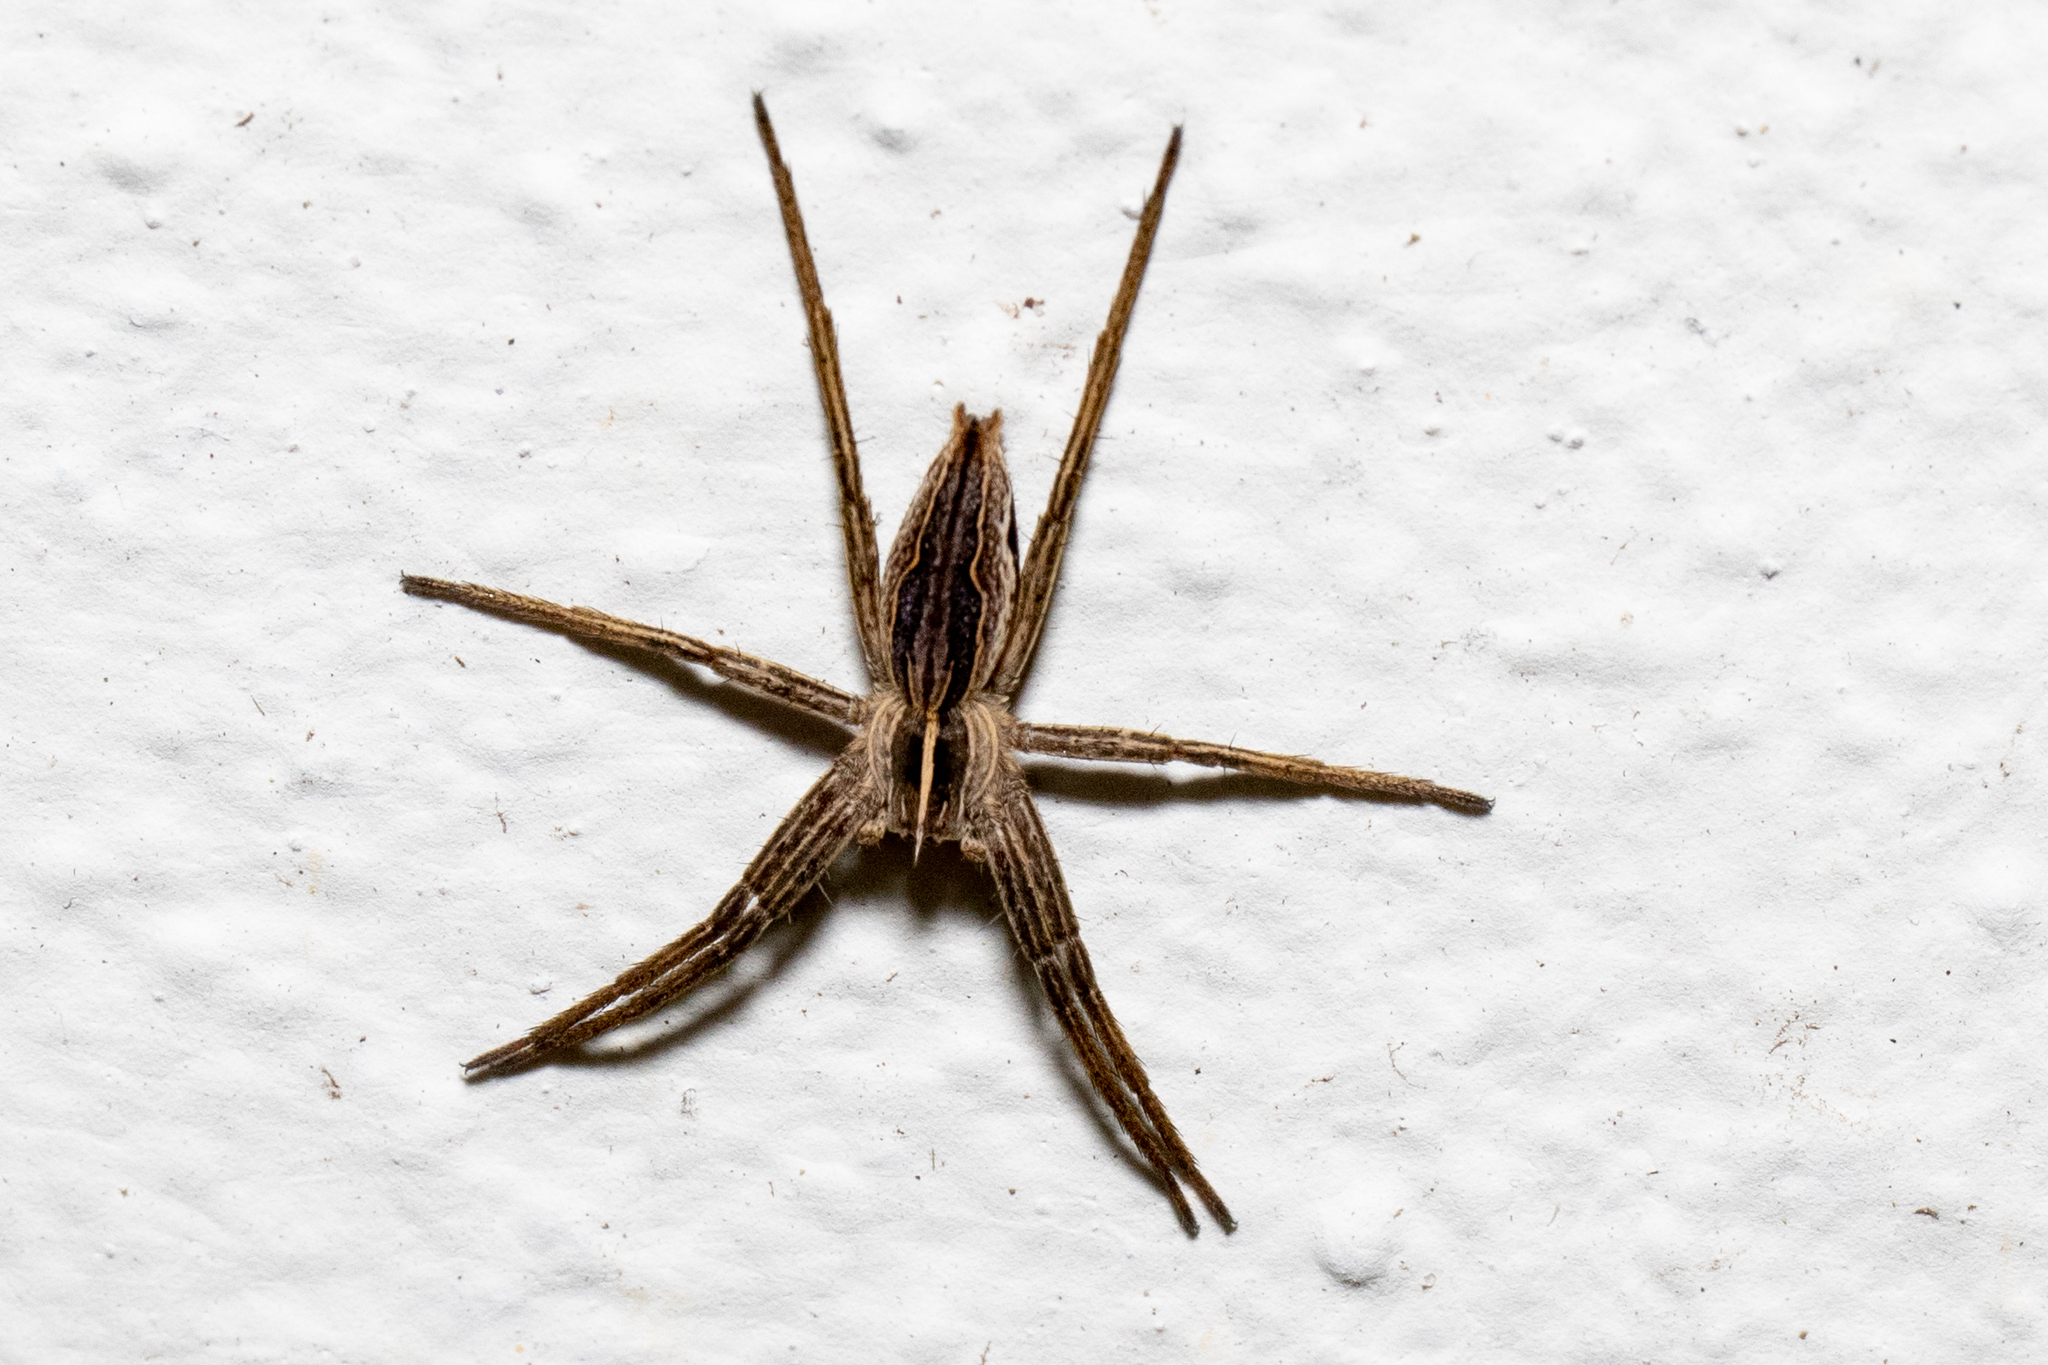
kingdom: Animalia
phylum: Arthropoda
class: Arachnida
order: Araneae
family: Pisauridae
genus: Pisaura
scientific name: Pisaura mirabilis
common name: Tent spider
